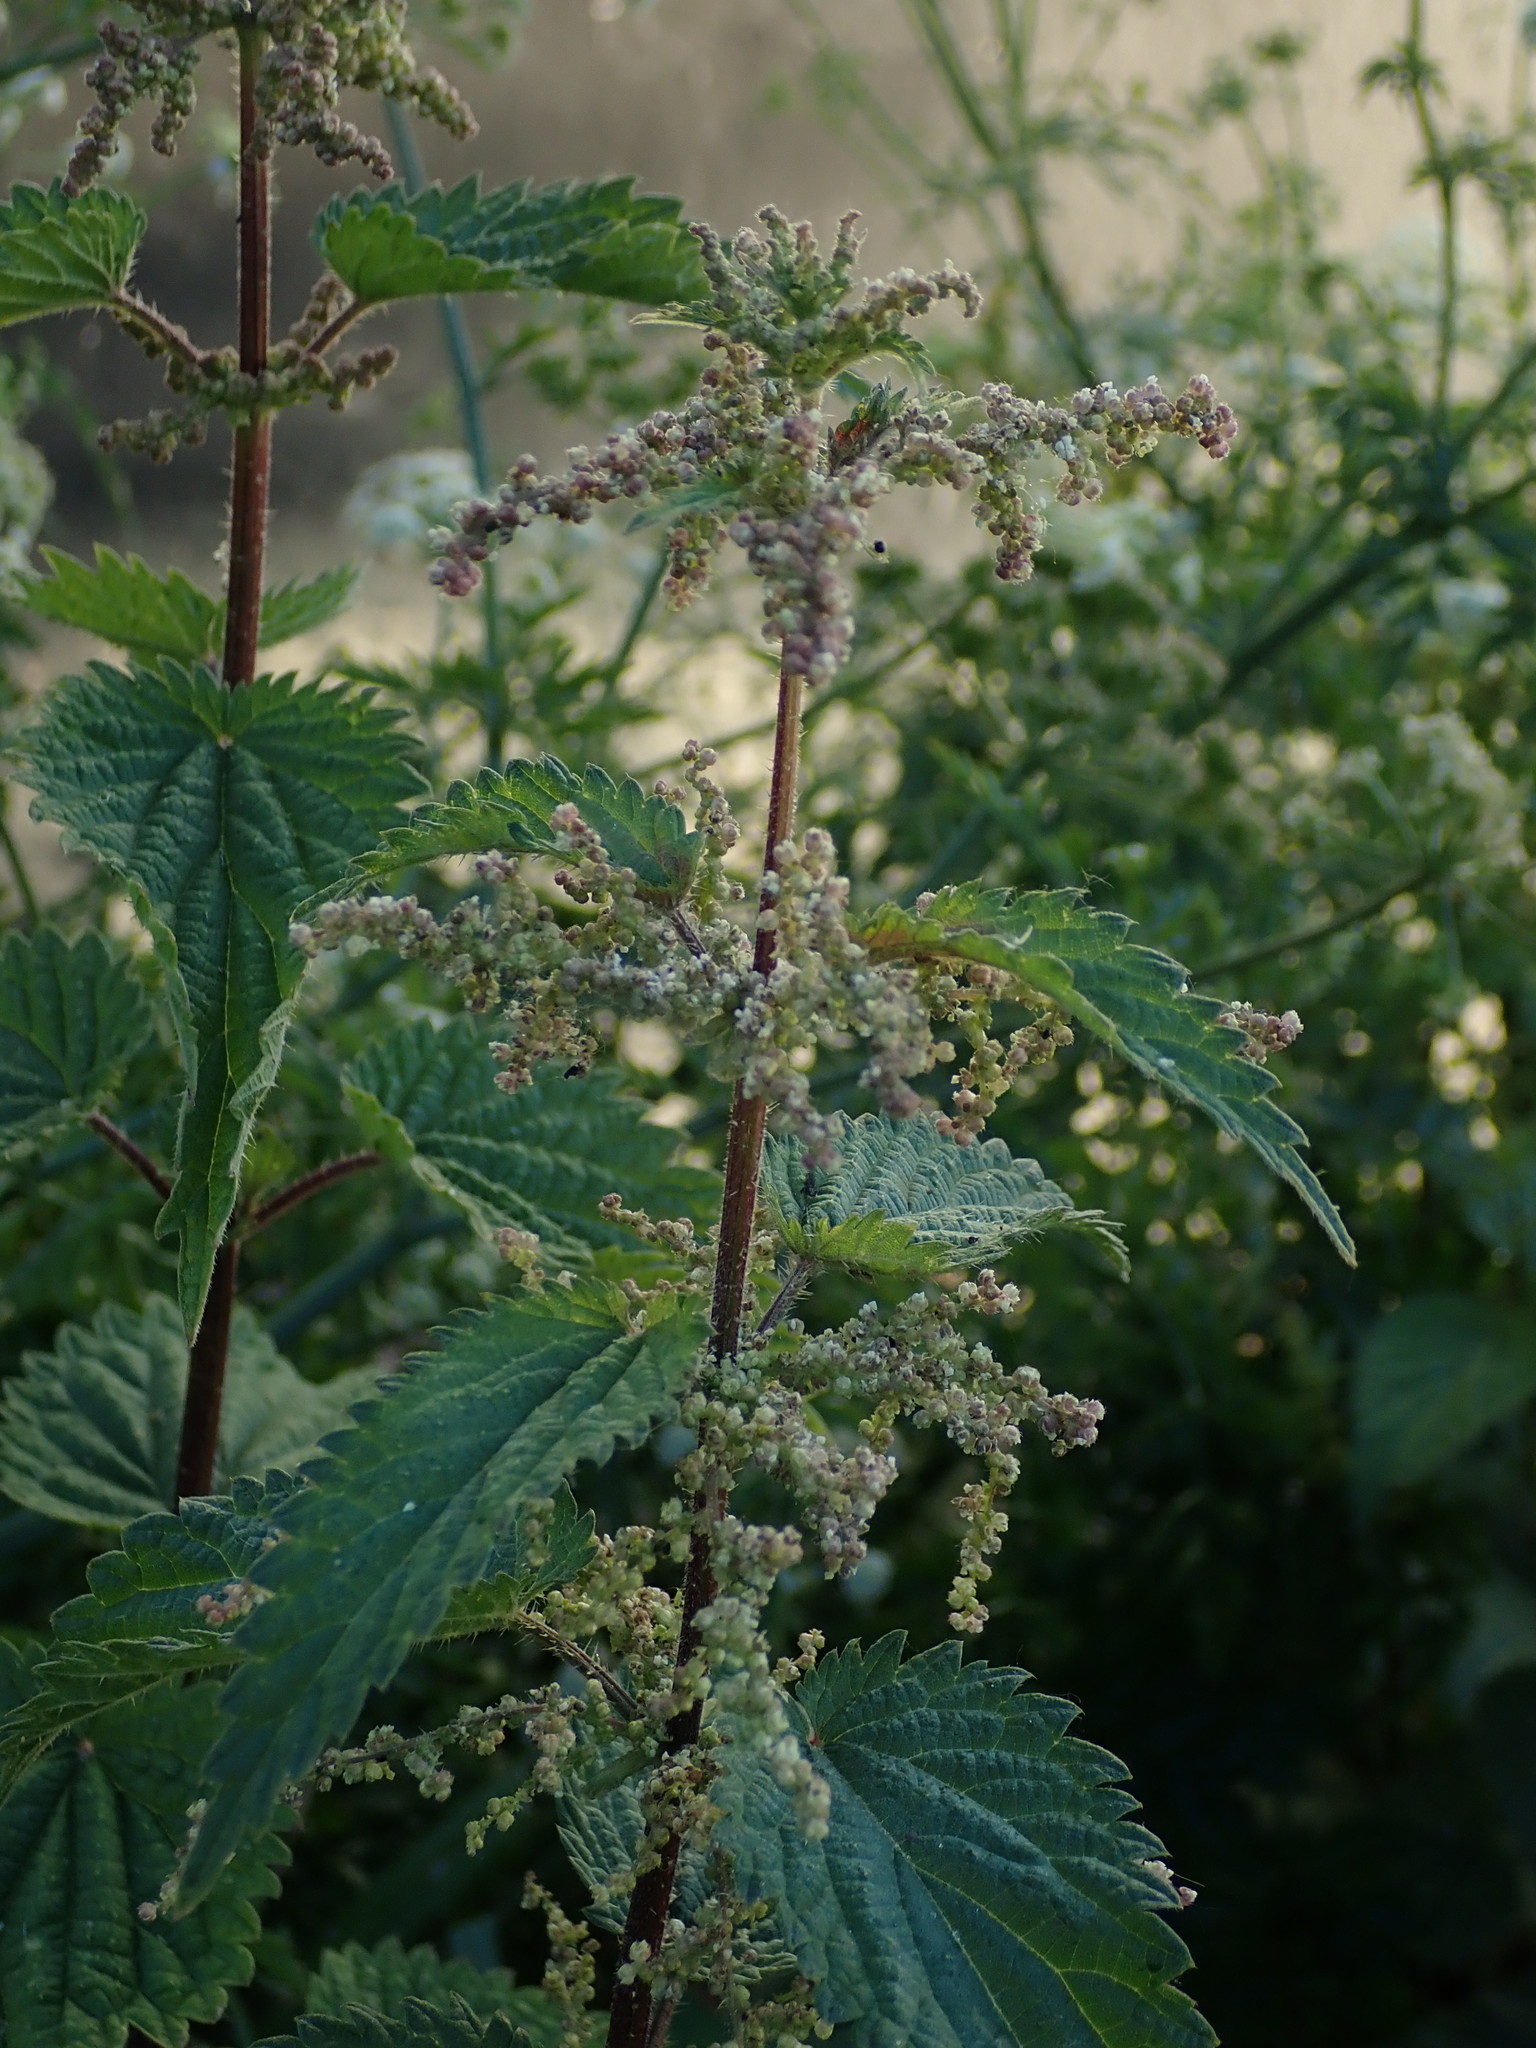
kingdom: Plantae
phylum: Tracheophyta
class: Magnoliopsida
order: Rosales
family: Urticaceae
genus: Urtica
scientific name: Urtica dioica
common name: Common nettle
